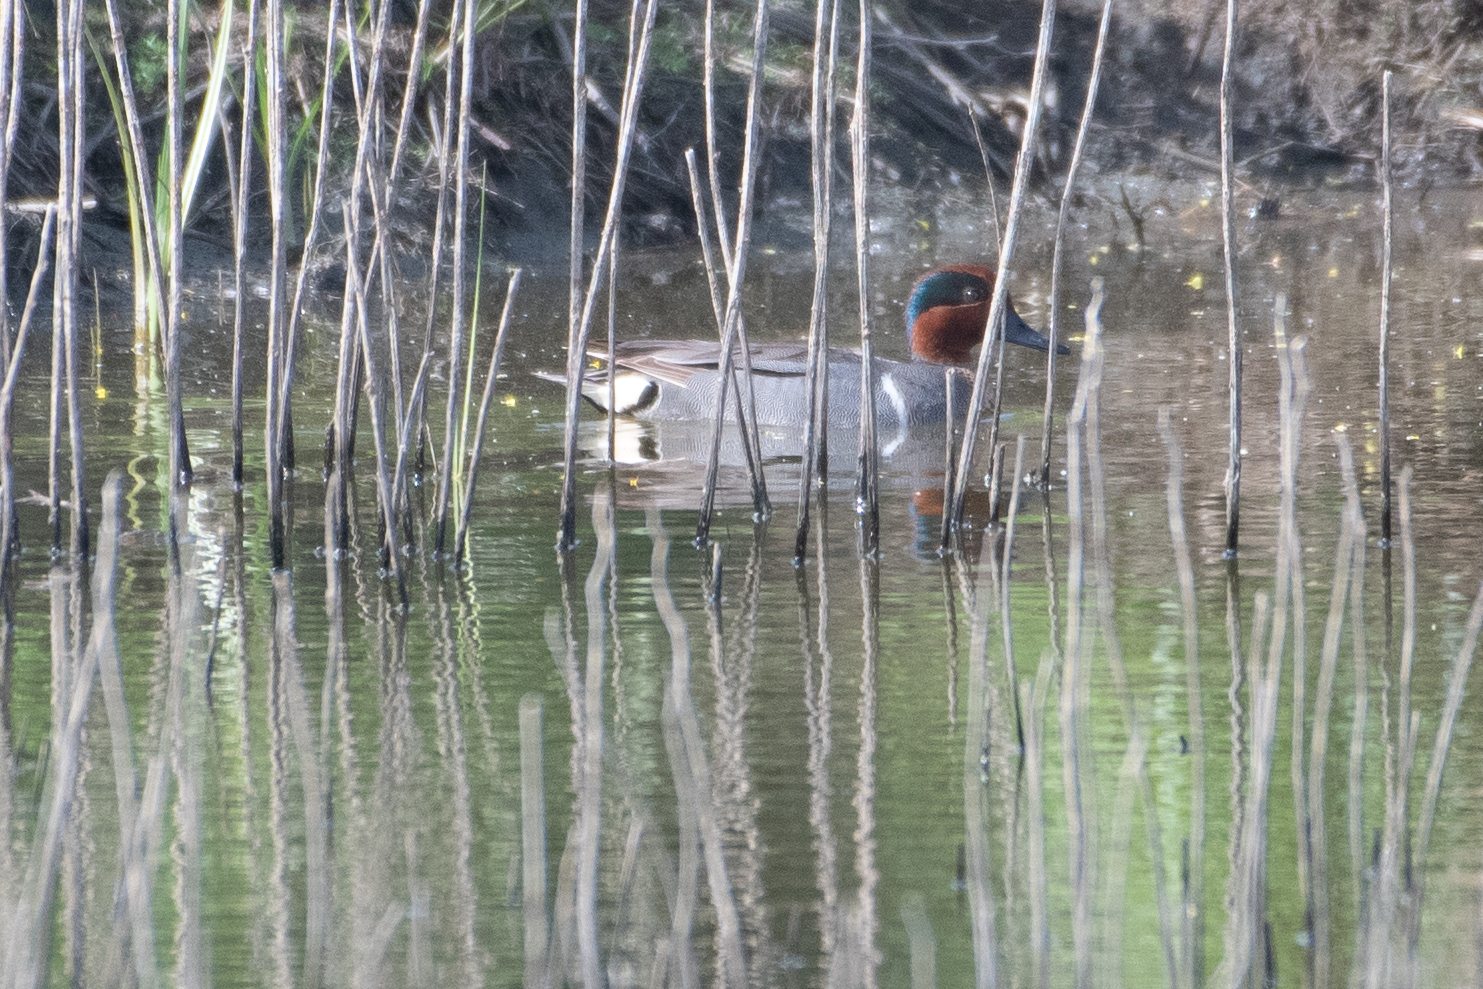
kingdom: Animalia
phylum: Chordata
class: Aves
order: Anseriformes
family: Anatidae
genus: Anas
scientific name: Anas crecca
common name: Eurasian teal
